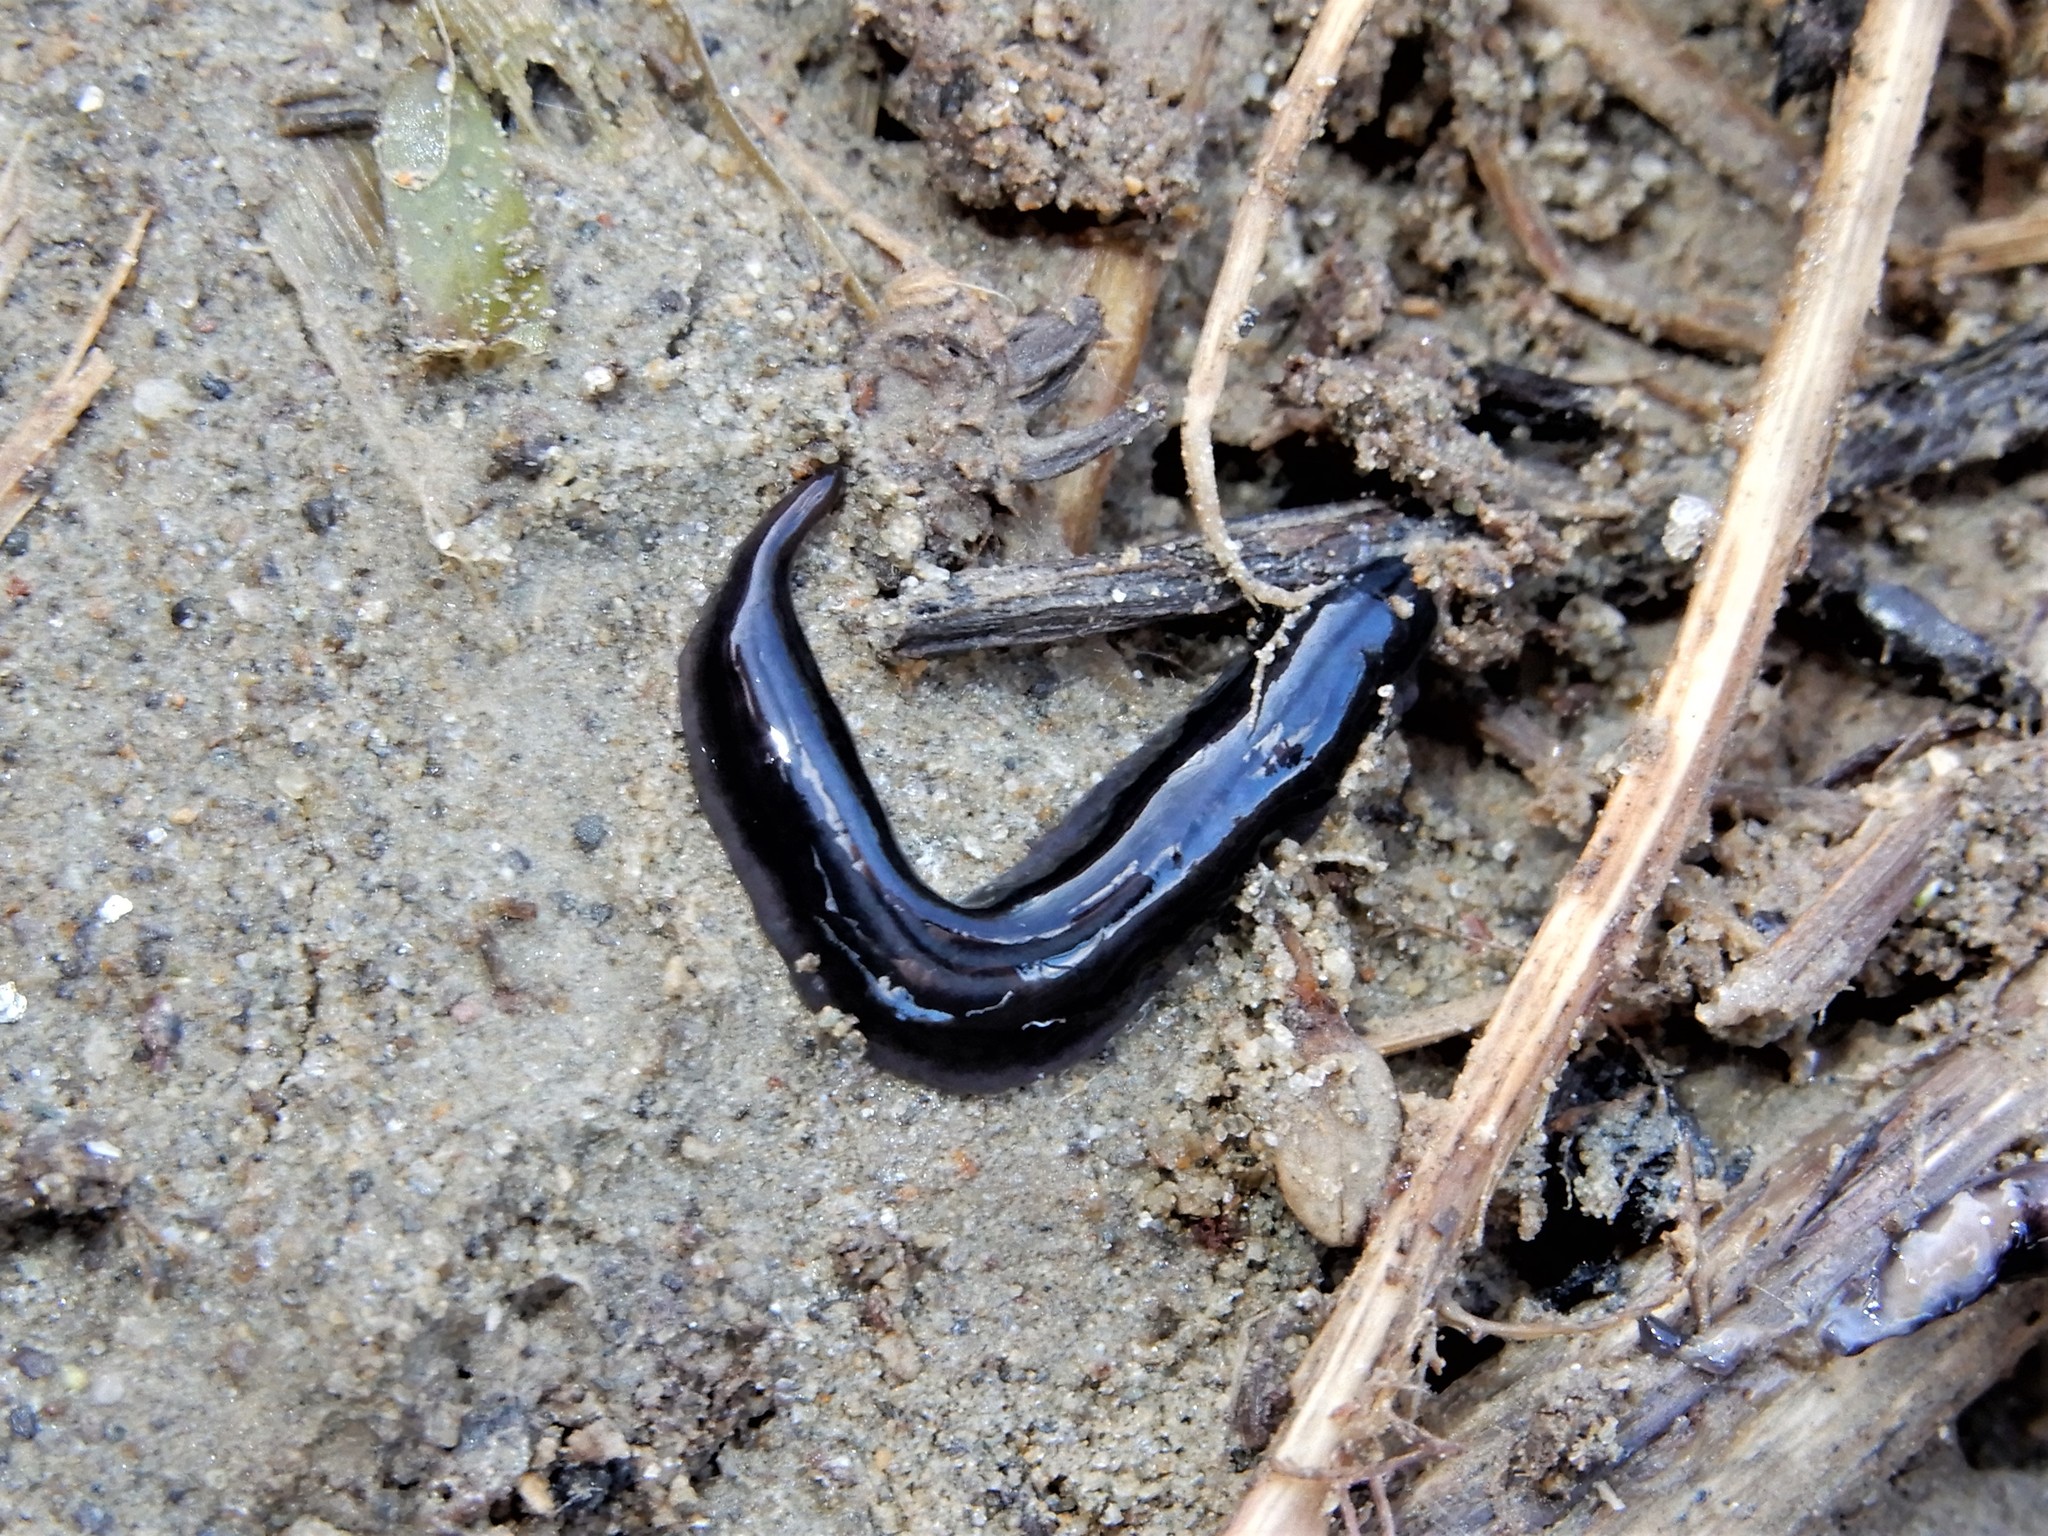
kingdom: Animalia
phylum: Platyhelminthes
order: Tricladida
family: Geoplanidae
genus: Parakontikia
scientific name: Parakontikia ventrolineata
